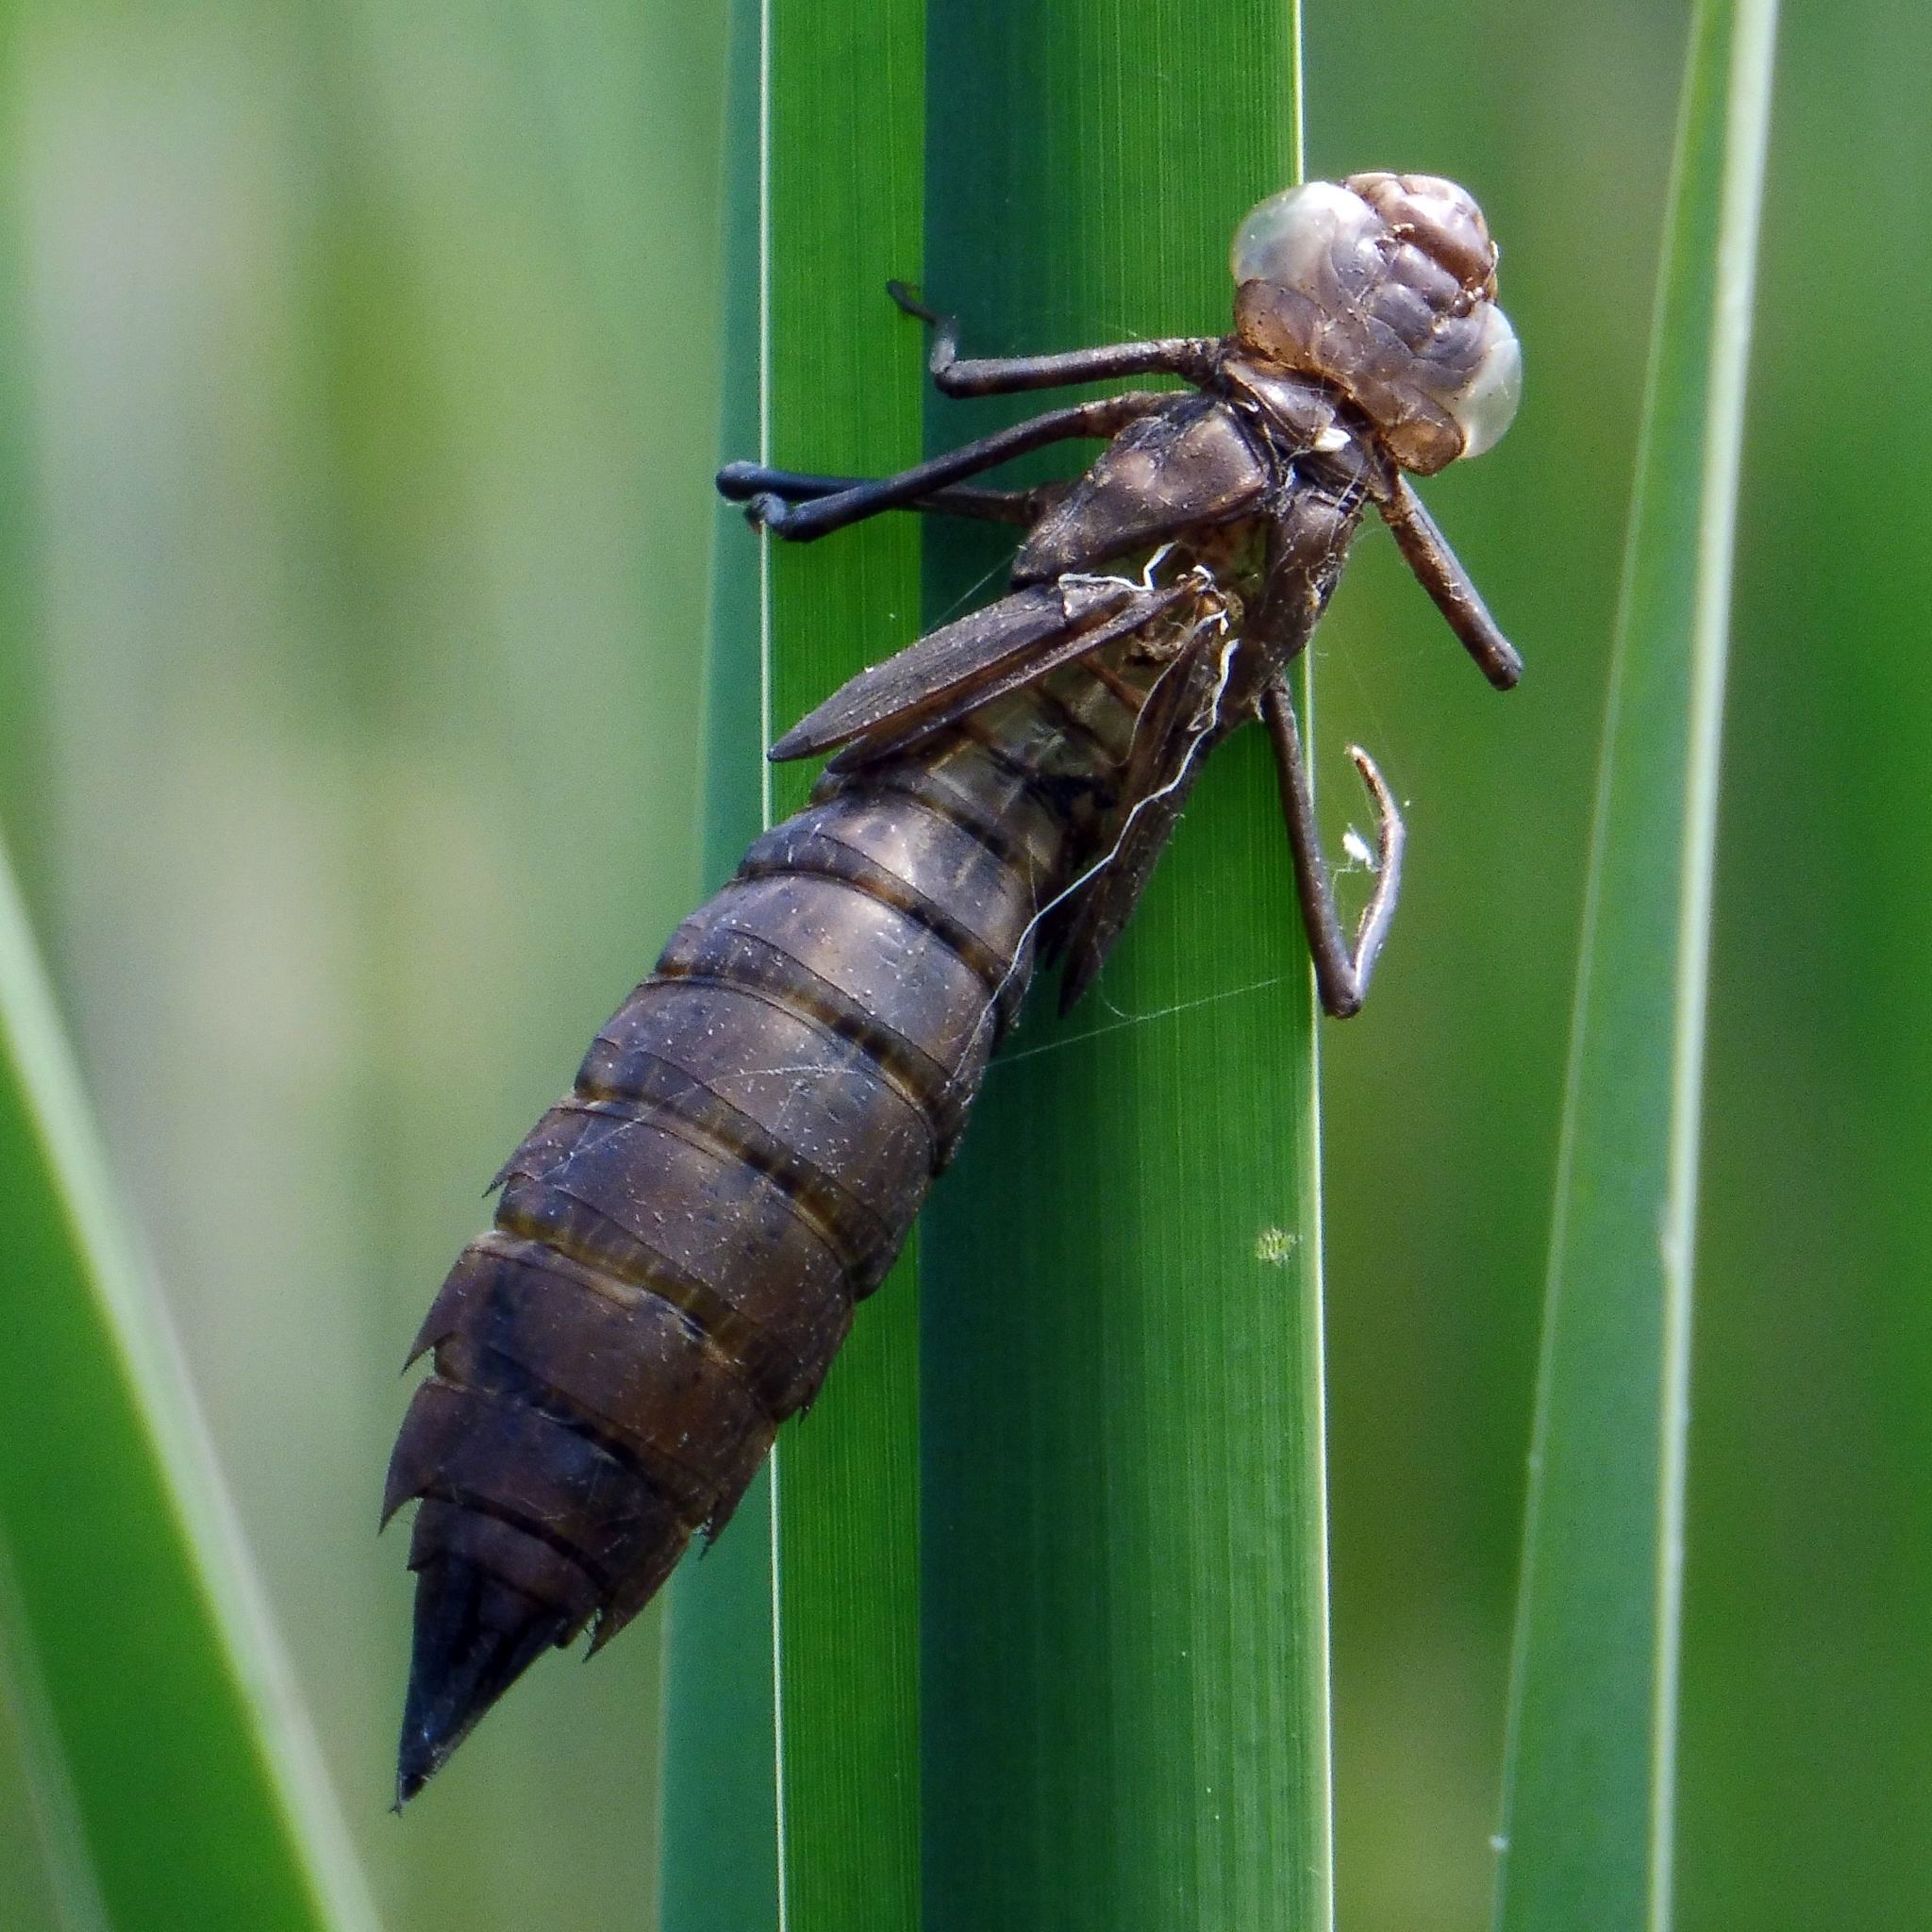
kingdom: Animalia
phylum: Arthropoda
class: Insecta
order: Odonata
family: Aeshnidae
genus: Anax
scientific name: Anax imperator
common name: Emperor dragonfly
